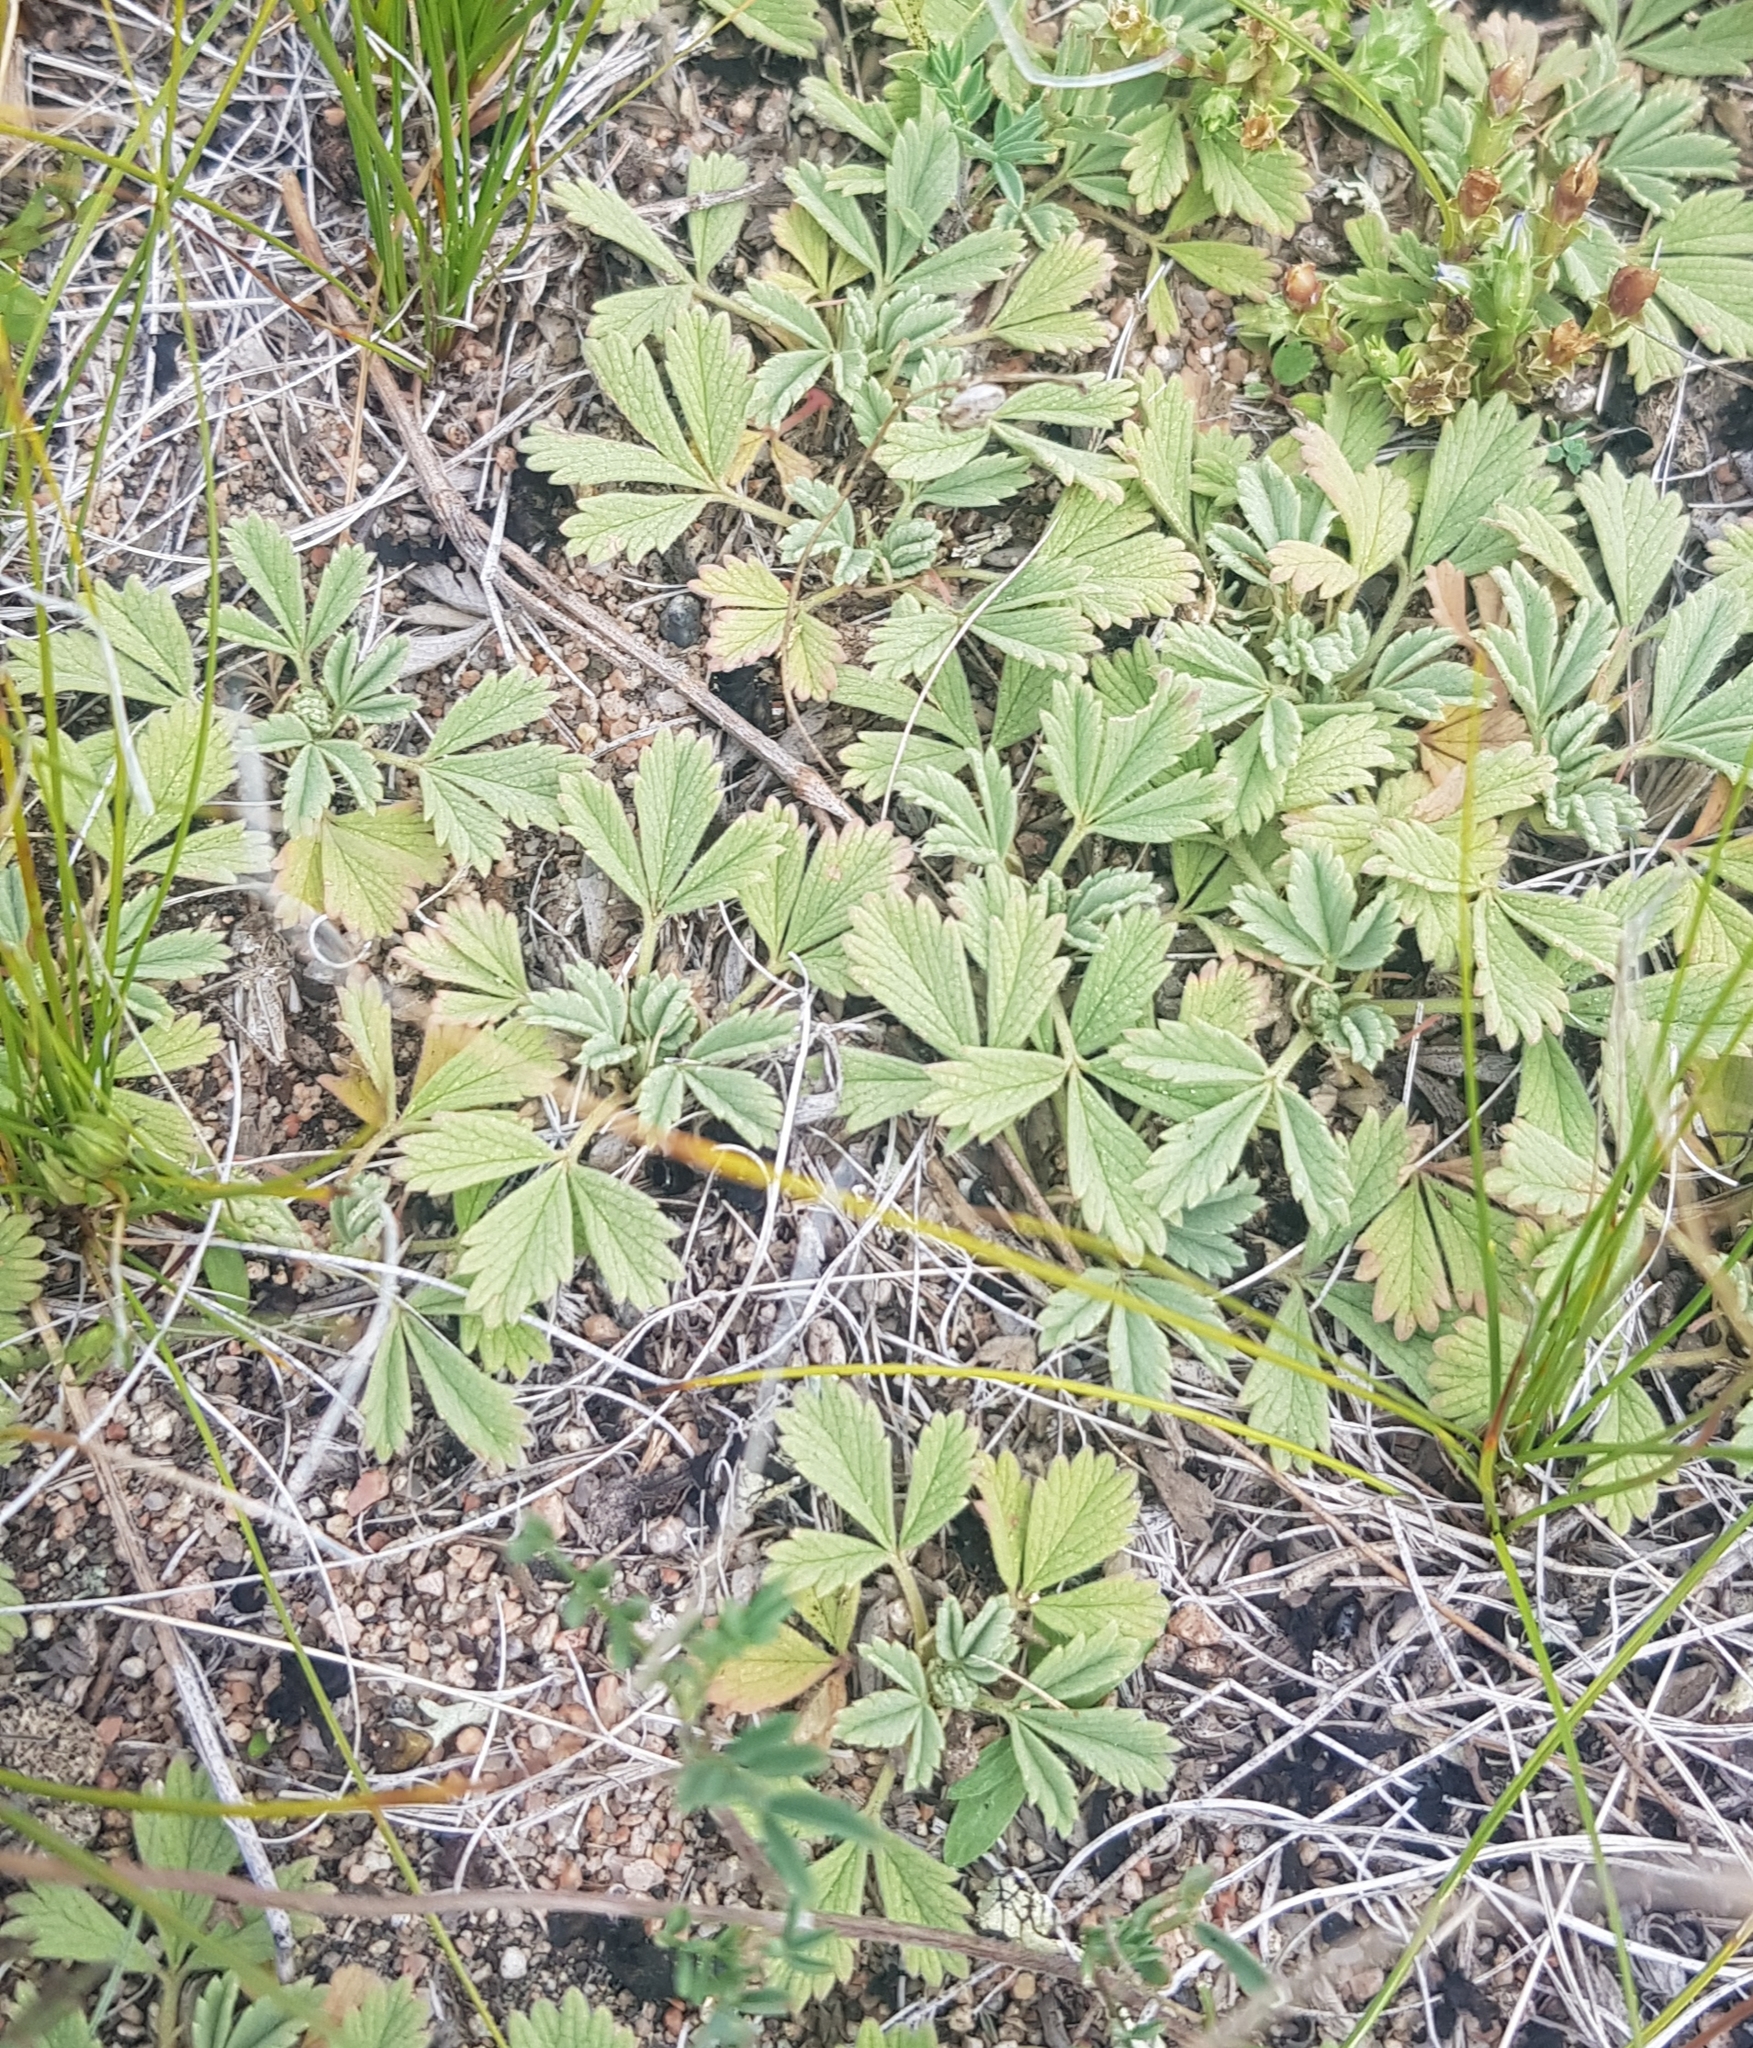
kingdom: Plantae
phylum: Tracheophyta
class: Magnoliopsida
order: Rosales
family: Rosaceae
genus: Potentilla
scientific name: Potentilla acaulis
